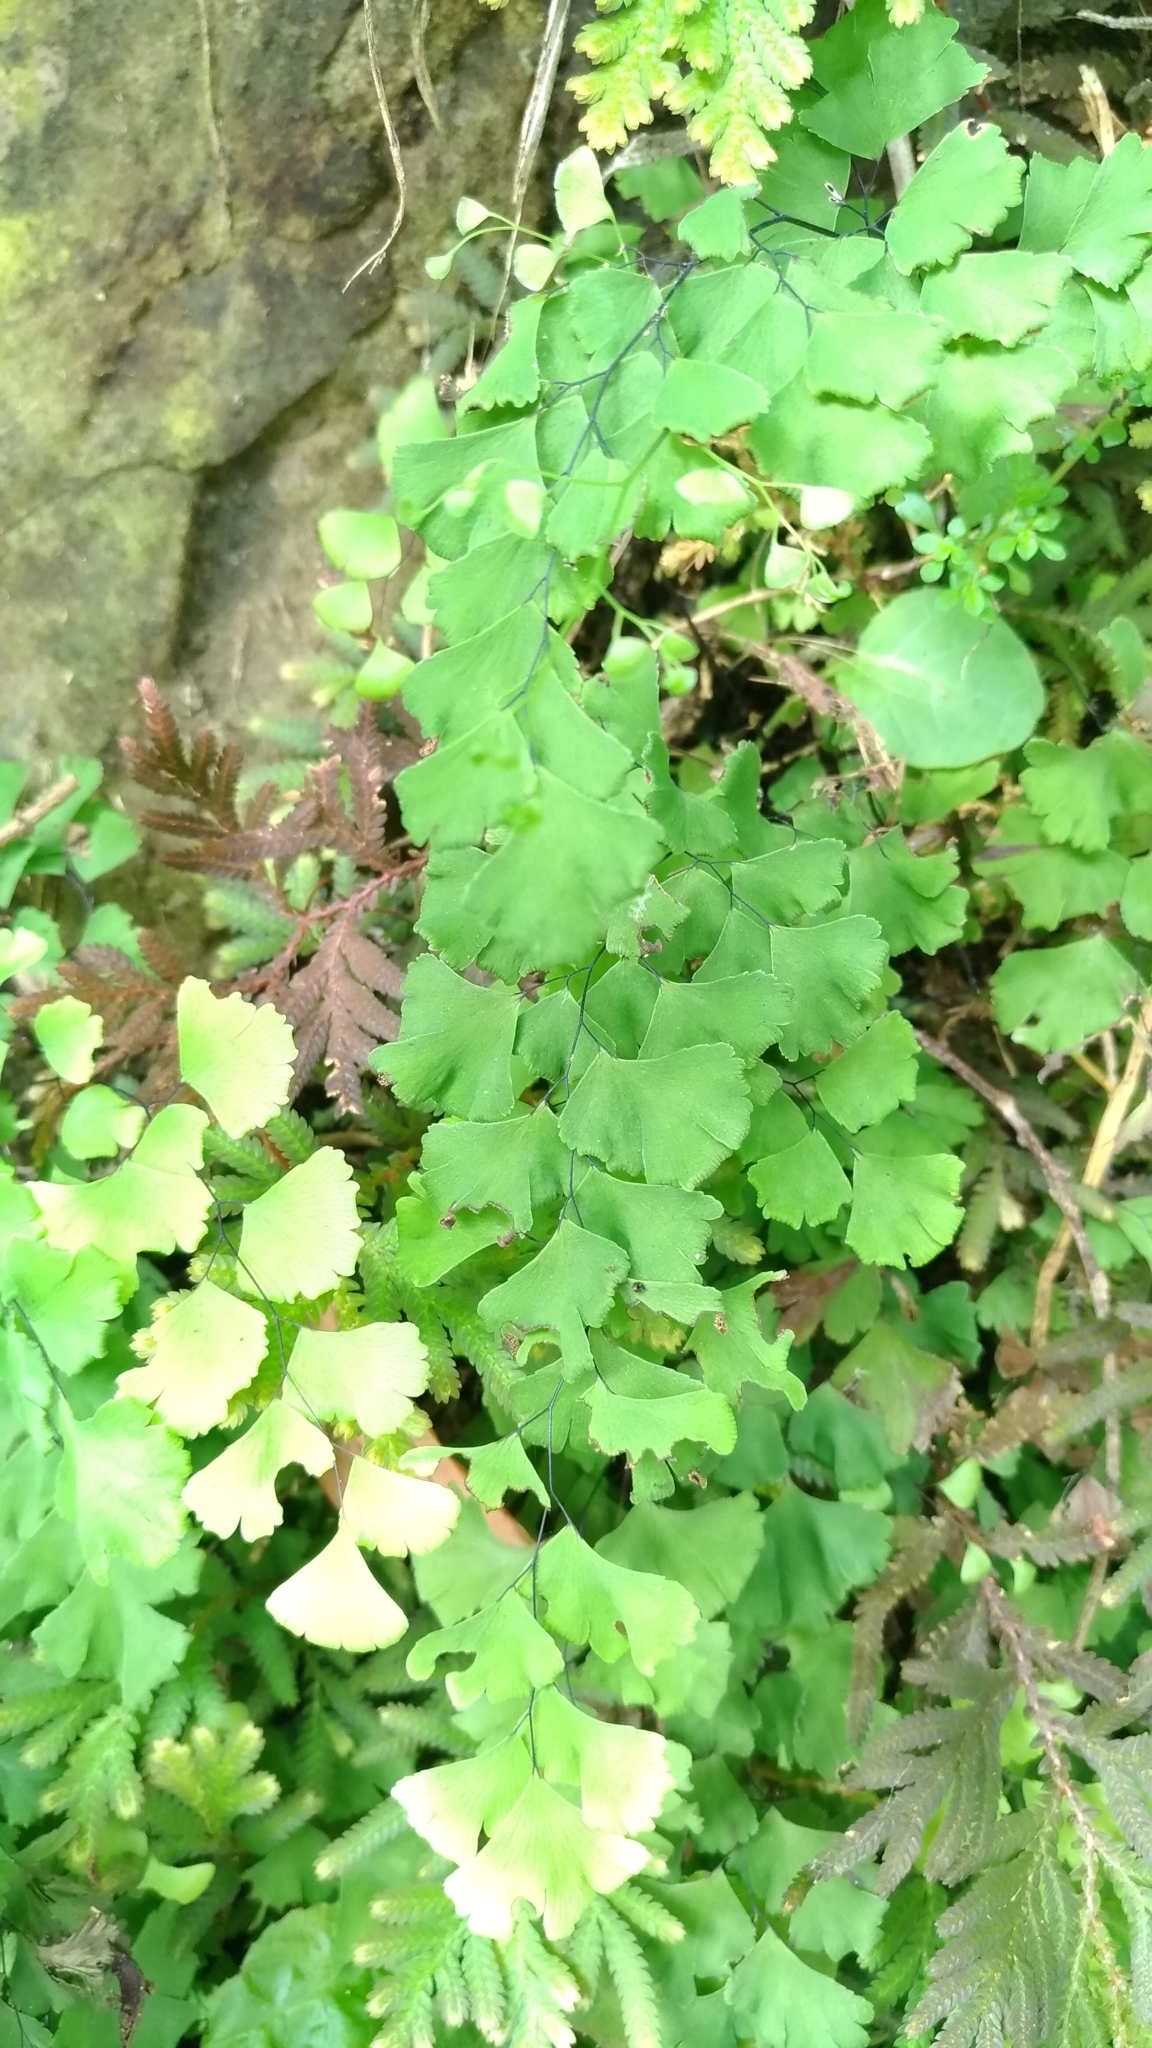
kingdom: Plantae
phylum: Tracheophyta
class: Polypodiopsida
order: Polypodiales
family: Pteridaceae
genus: Adiantum
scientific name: Adiantum capillus-veneris
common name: Maidenhair fern
